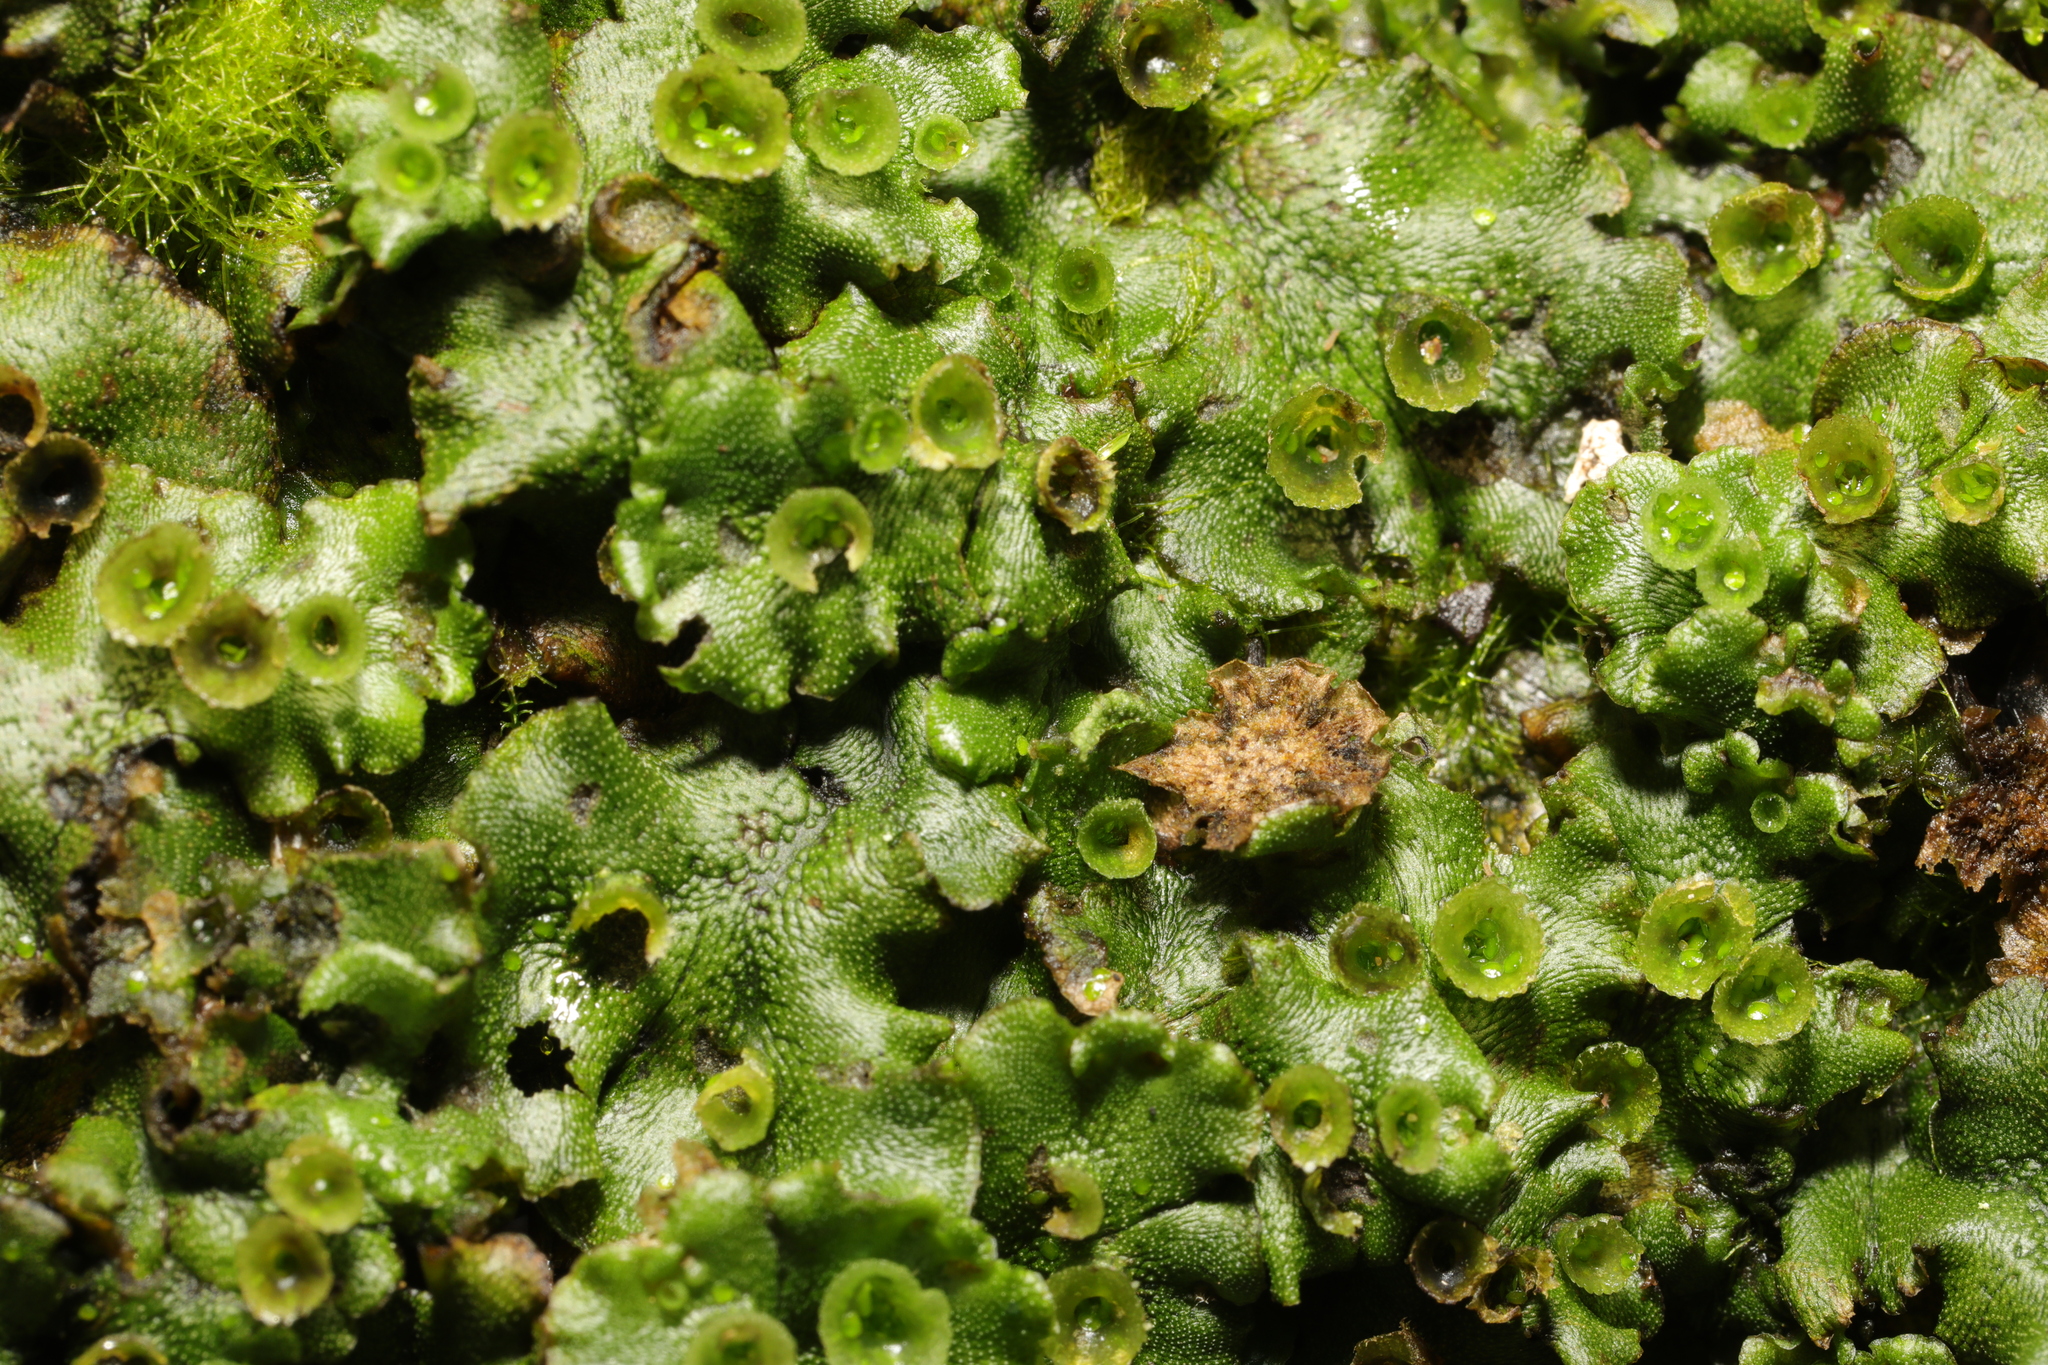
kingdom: Plantae
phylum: Marchantiophyta
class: Marchantiopsida
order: Marchantiales
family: Marchantiaceae
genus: Marchantia
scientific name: Marchantia polymorpha
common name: Common liverwort
